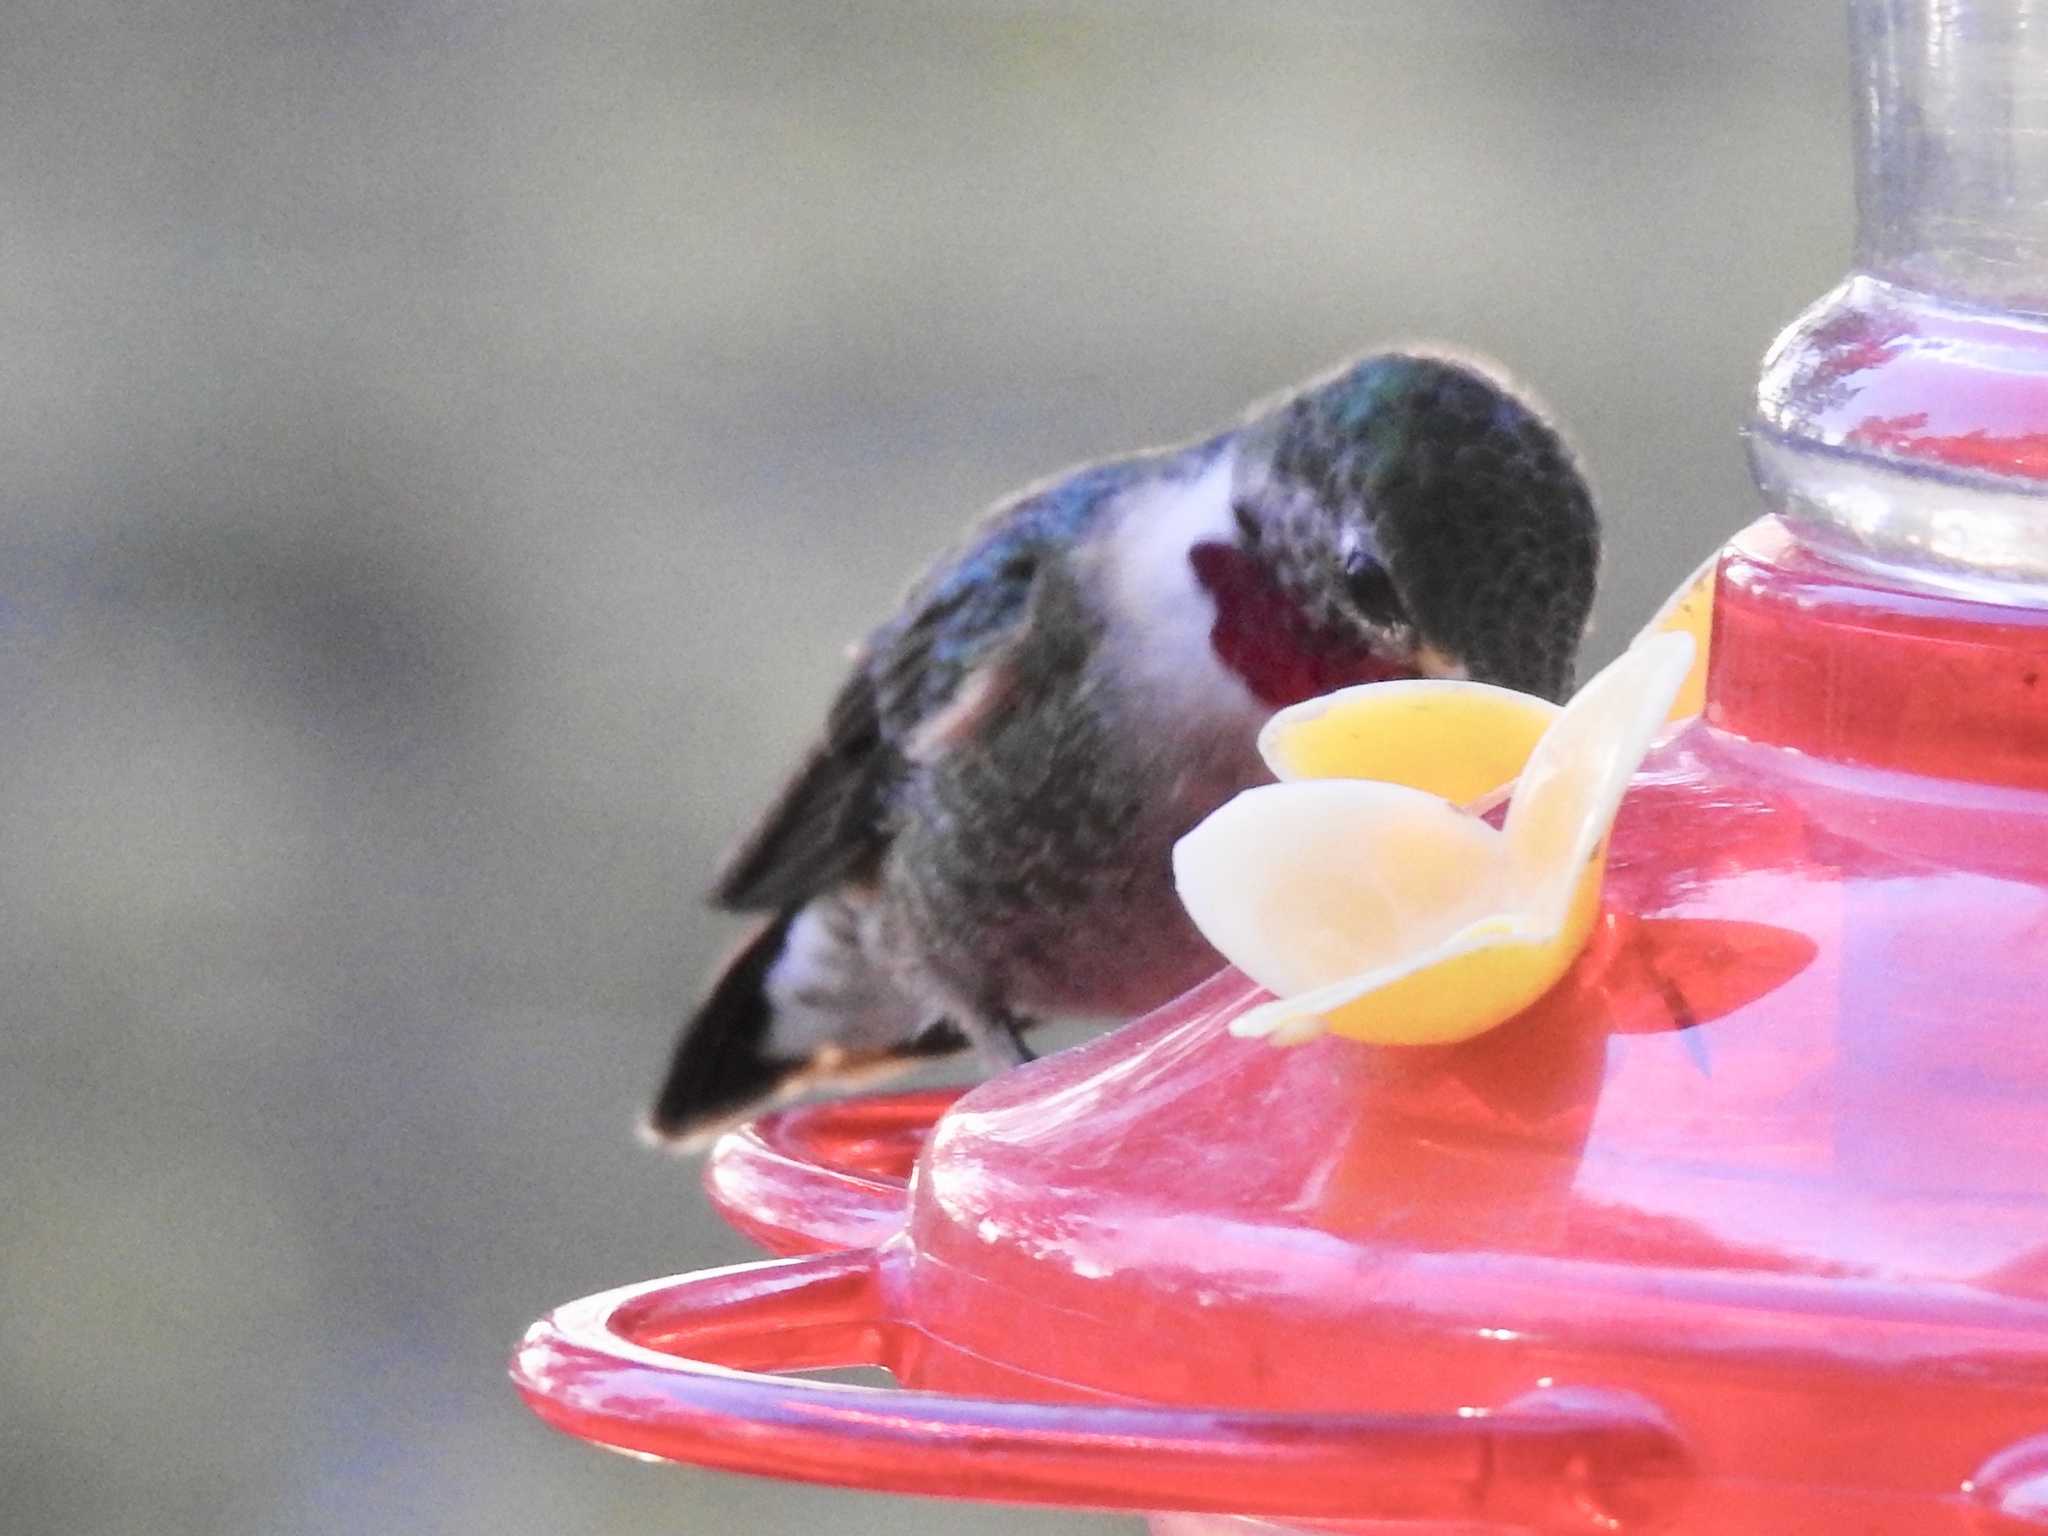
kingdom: Animalia
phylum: Chordata
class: Aves
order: Apodiformes
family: Trochilidae
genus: Selasphorus
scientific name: Selasphorus platycercus
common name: Broad-tailed hummingbird
